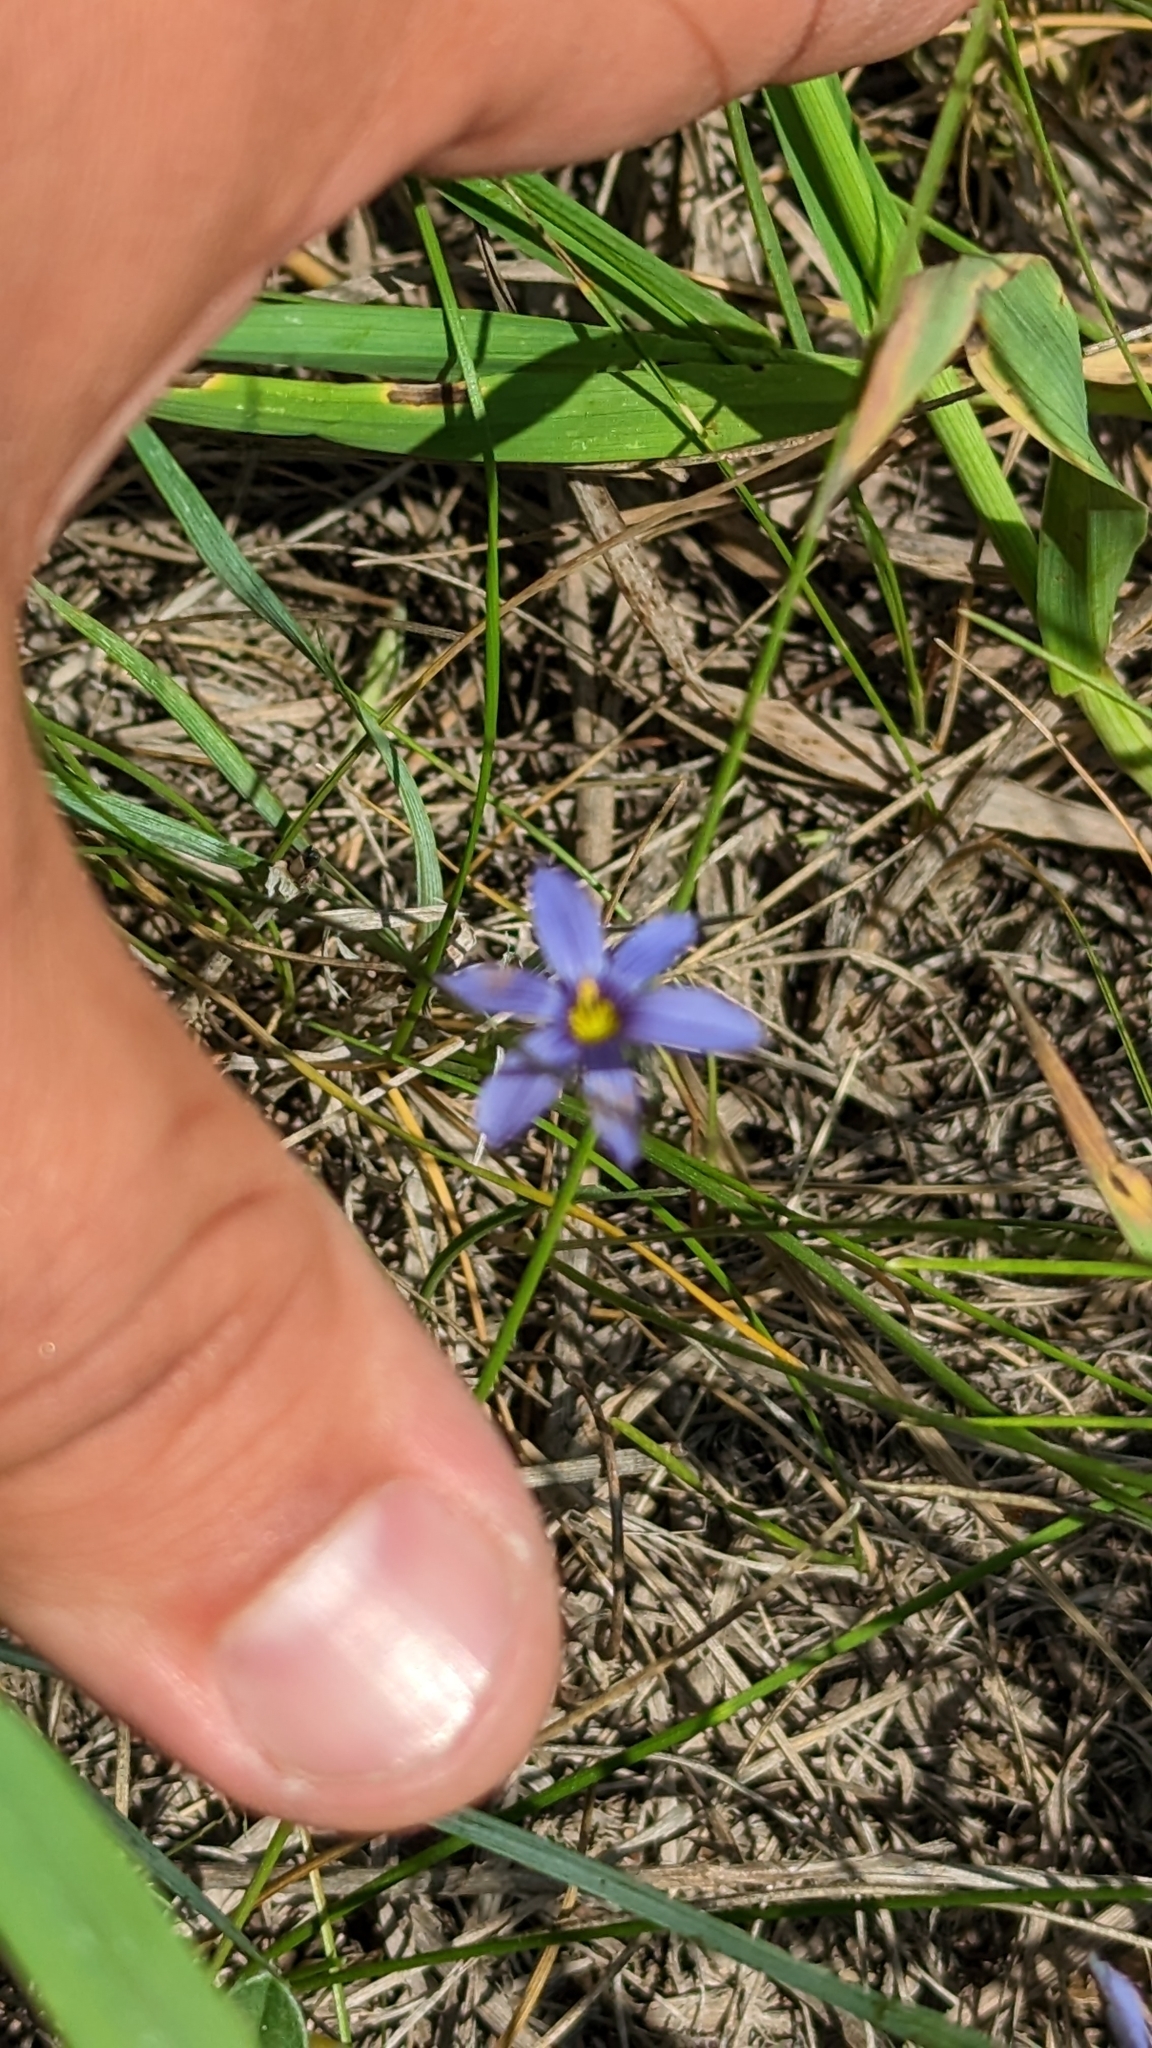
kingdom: Plantae
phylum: Tracheophyta
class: Liliopsida
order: Asparagales
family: Iridaceae
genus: Sisyrinchium
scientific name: Sisyrinchium montanum
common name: American blue-eyed-grass
